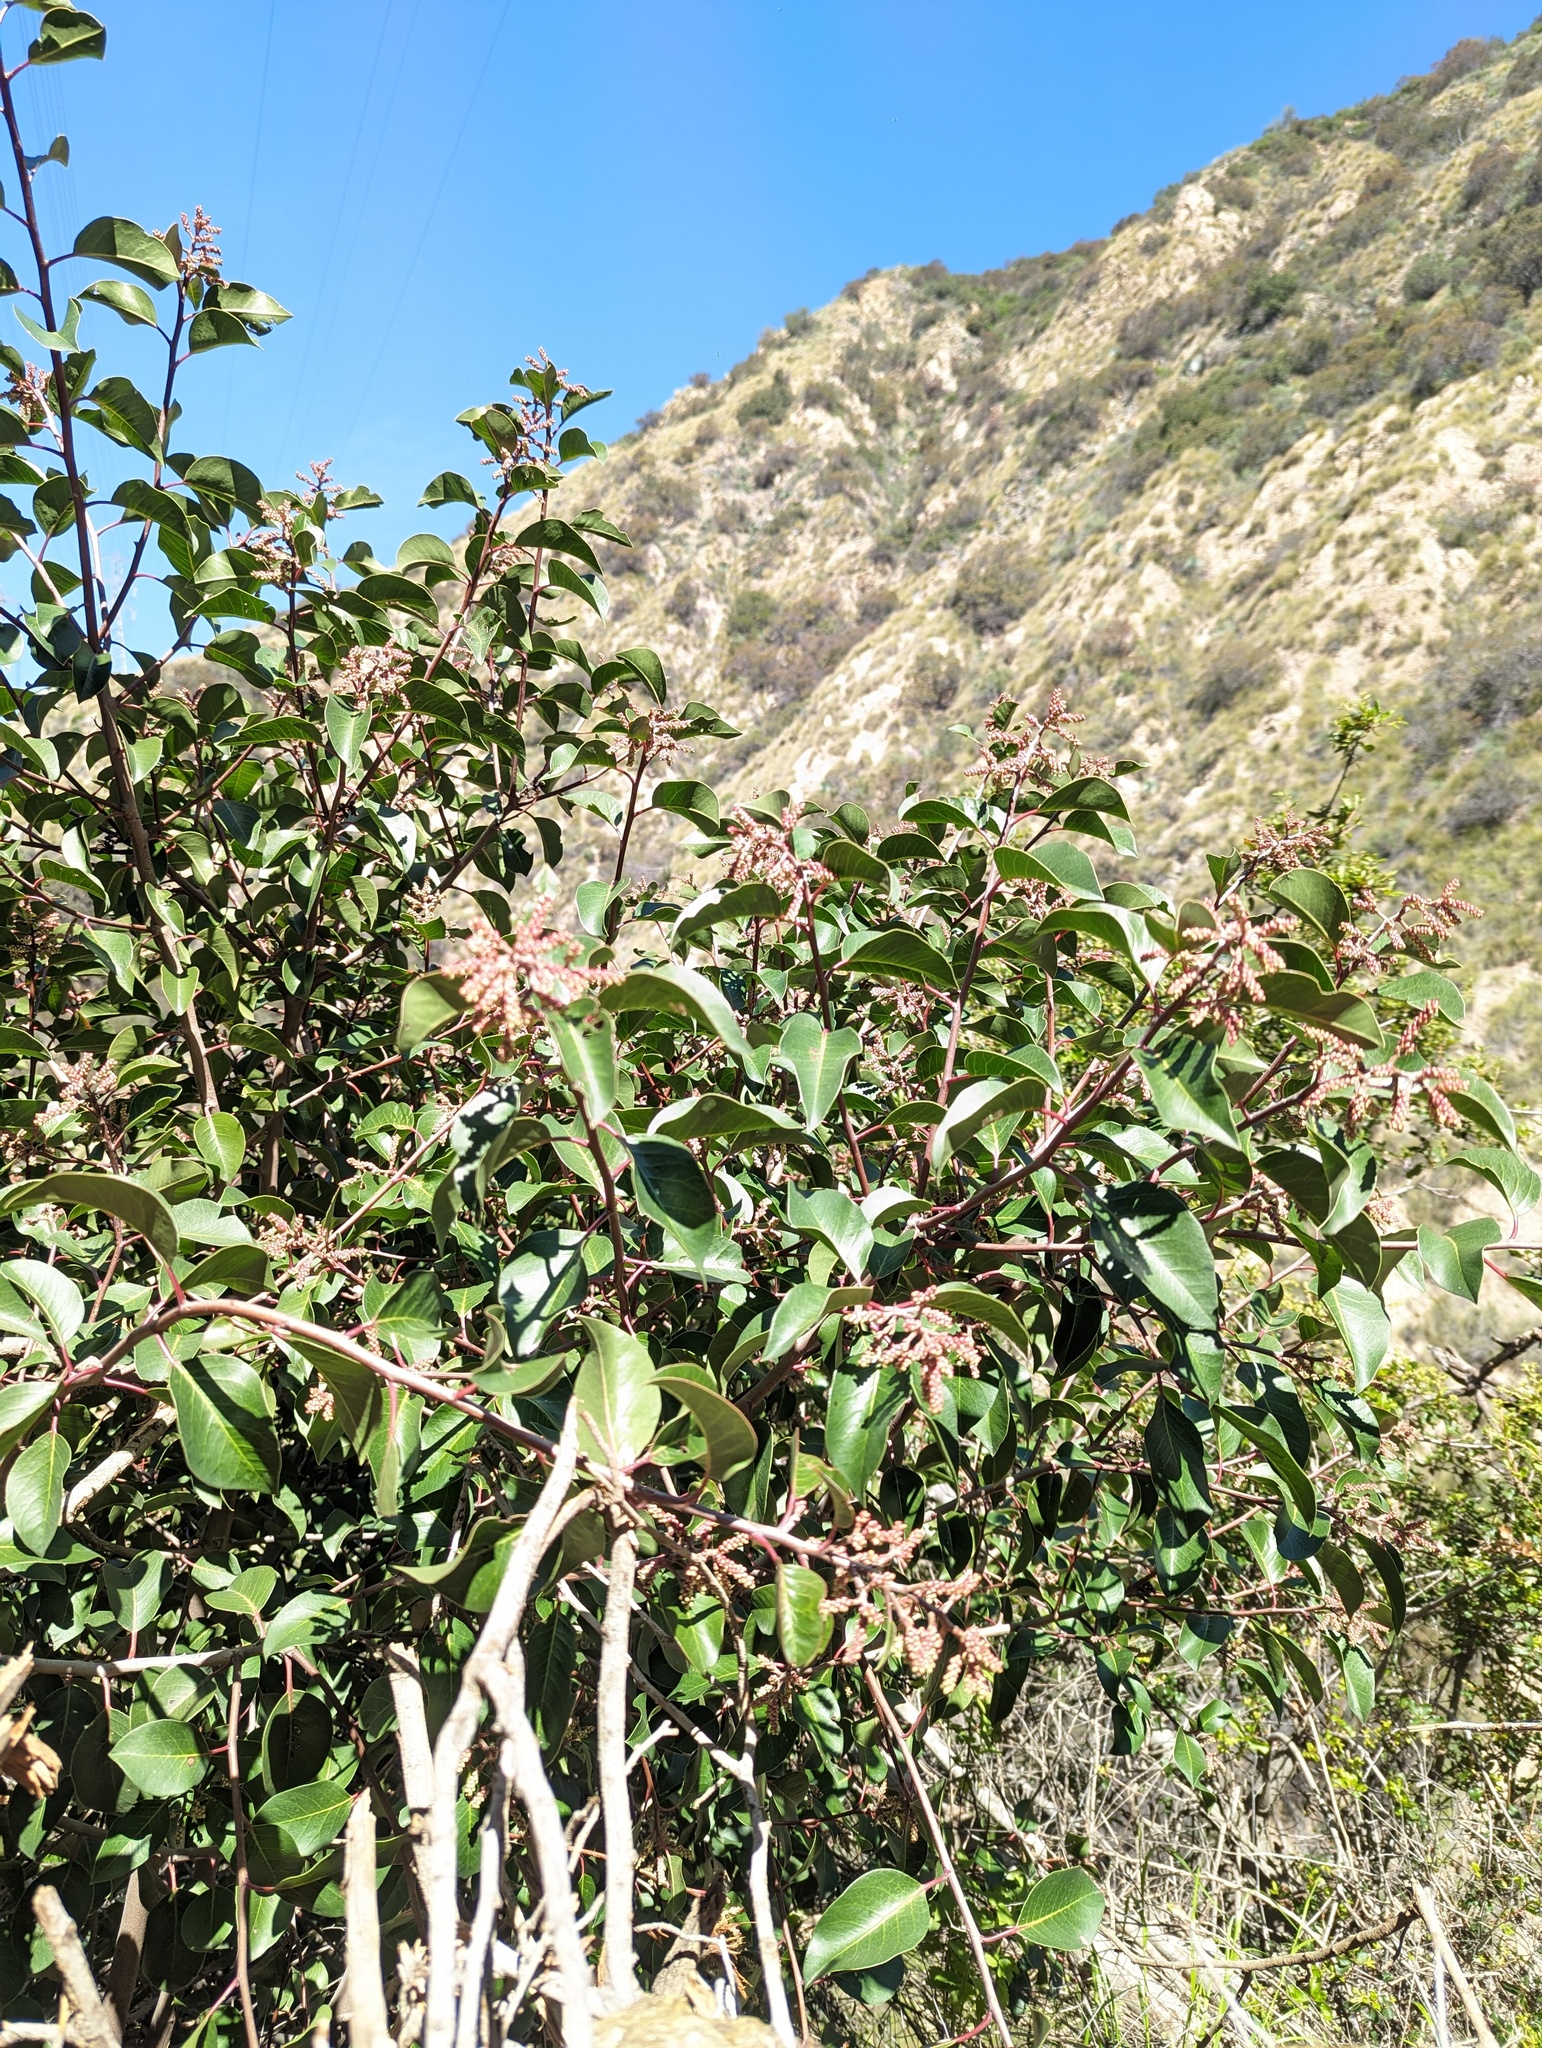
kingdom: Plantae
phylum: Tracheophyta
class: Magnoliopsida
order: Sapindales
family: Anacardiaceae
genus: Rhus
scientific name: Rhus ovata
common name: Sugar sumac
